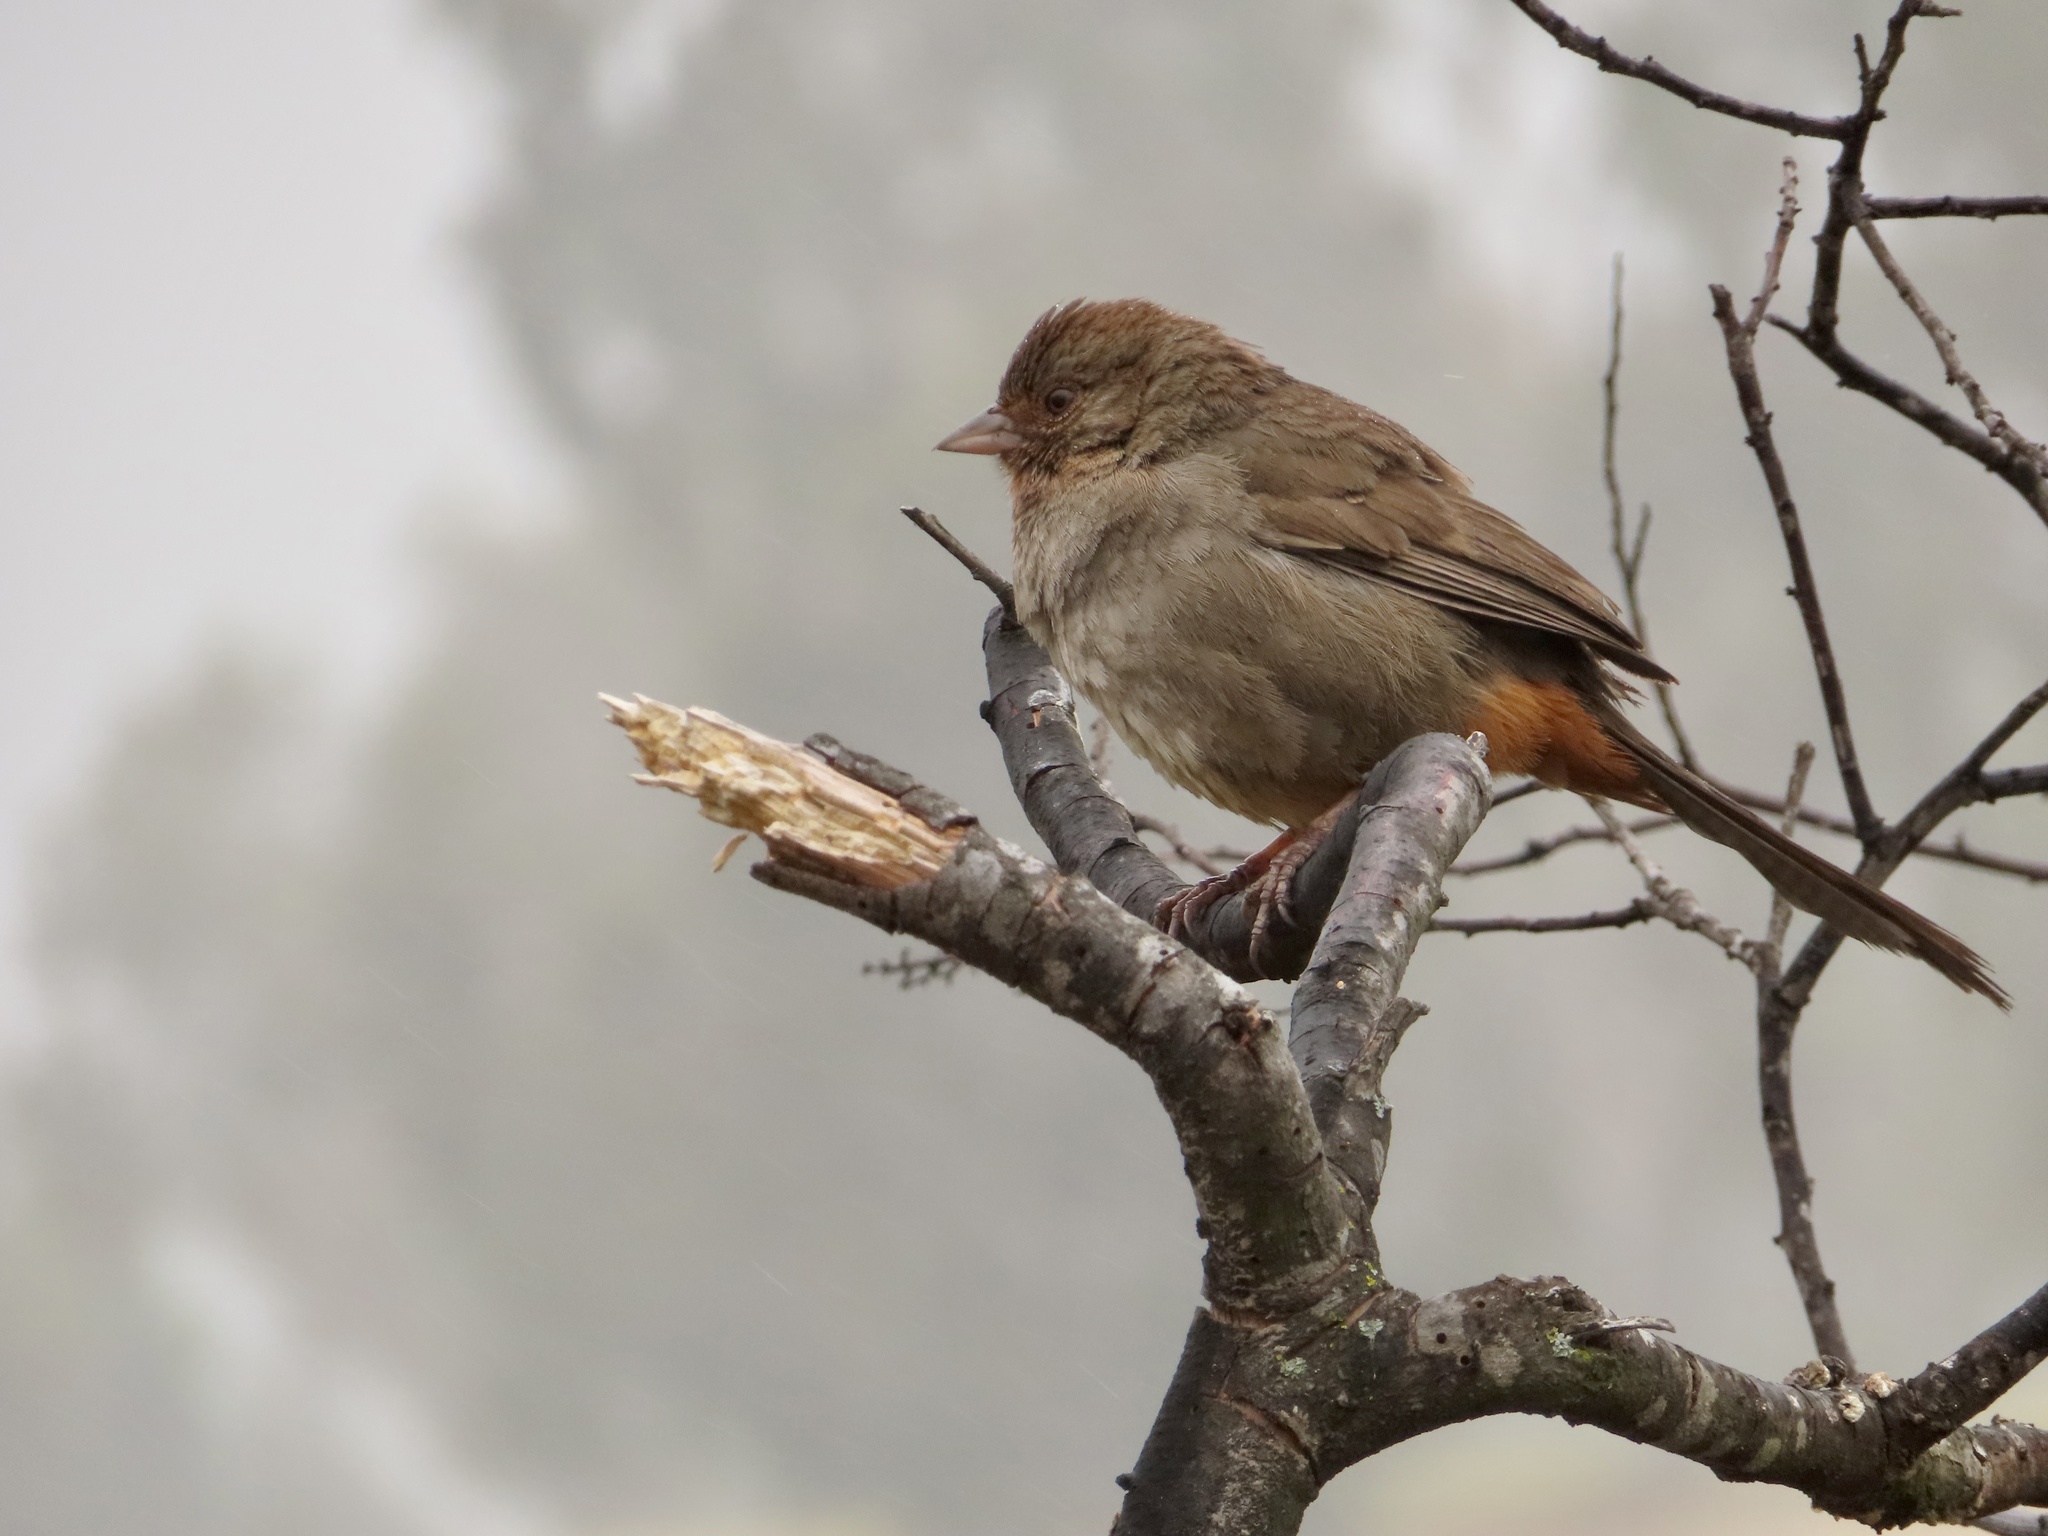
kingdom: Animalia
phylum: Chordata
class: Aves
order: Passeriformes
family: Passerellidae
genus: Melozone
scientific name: Melozone crissalis
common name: California towhee
